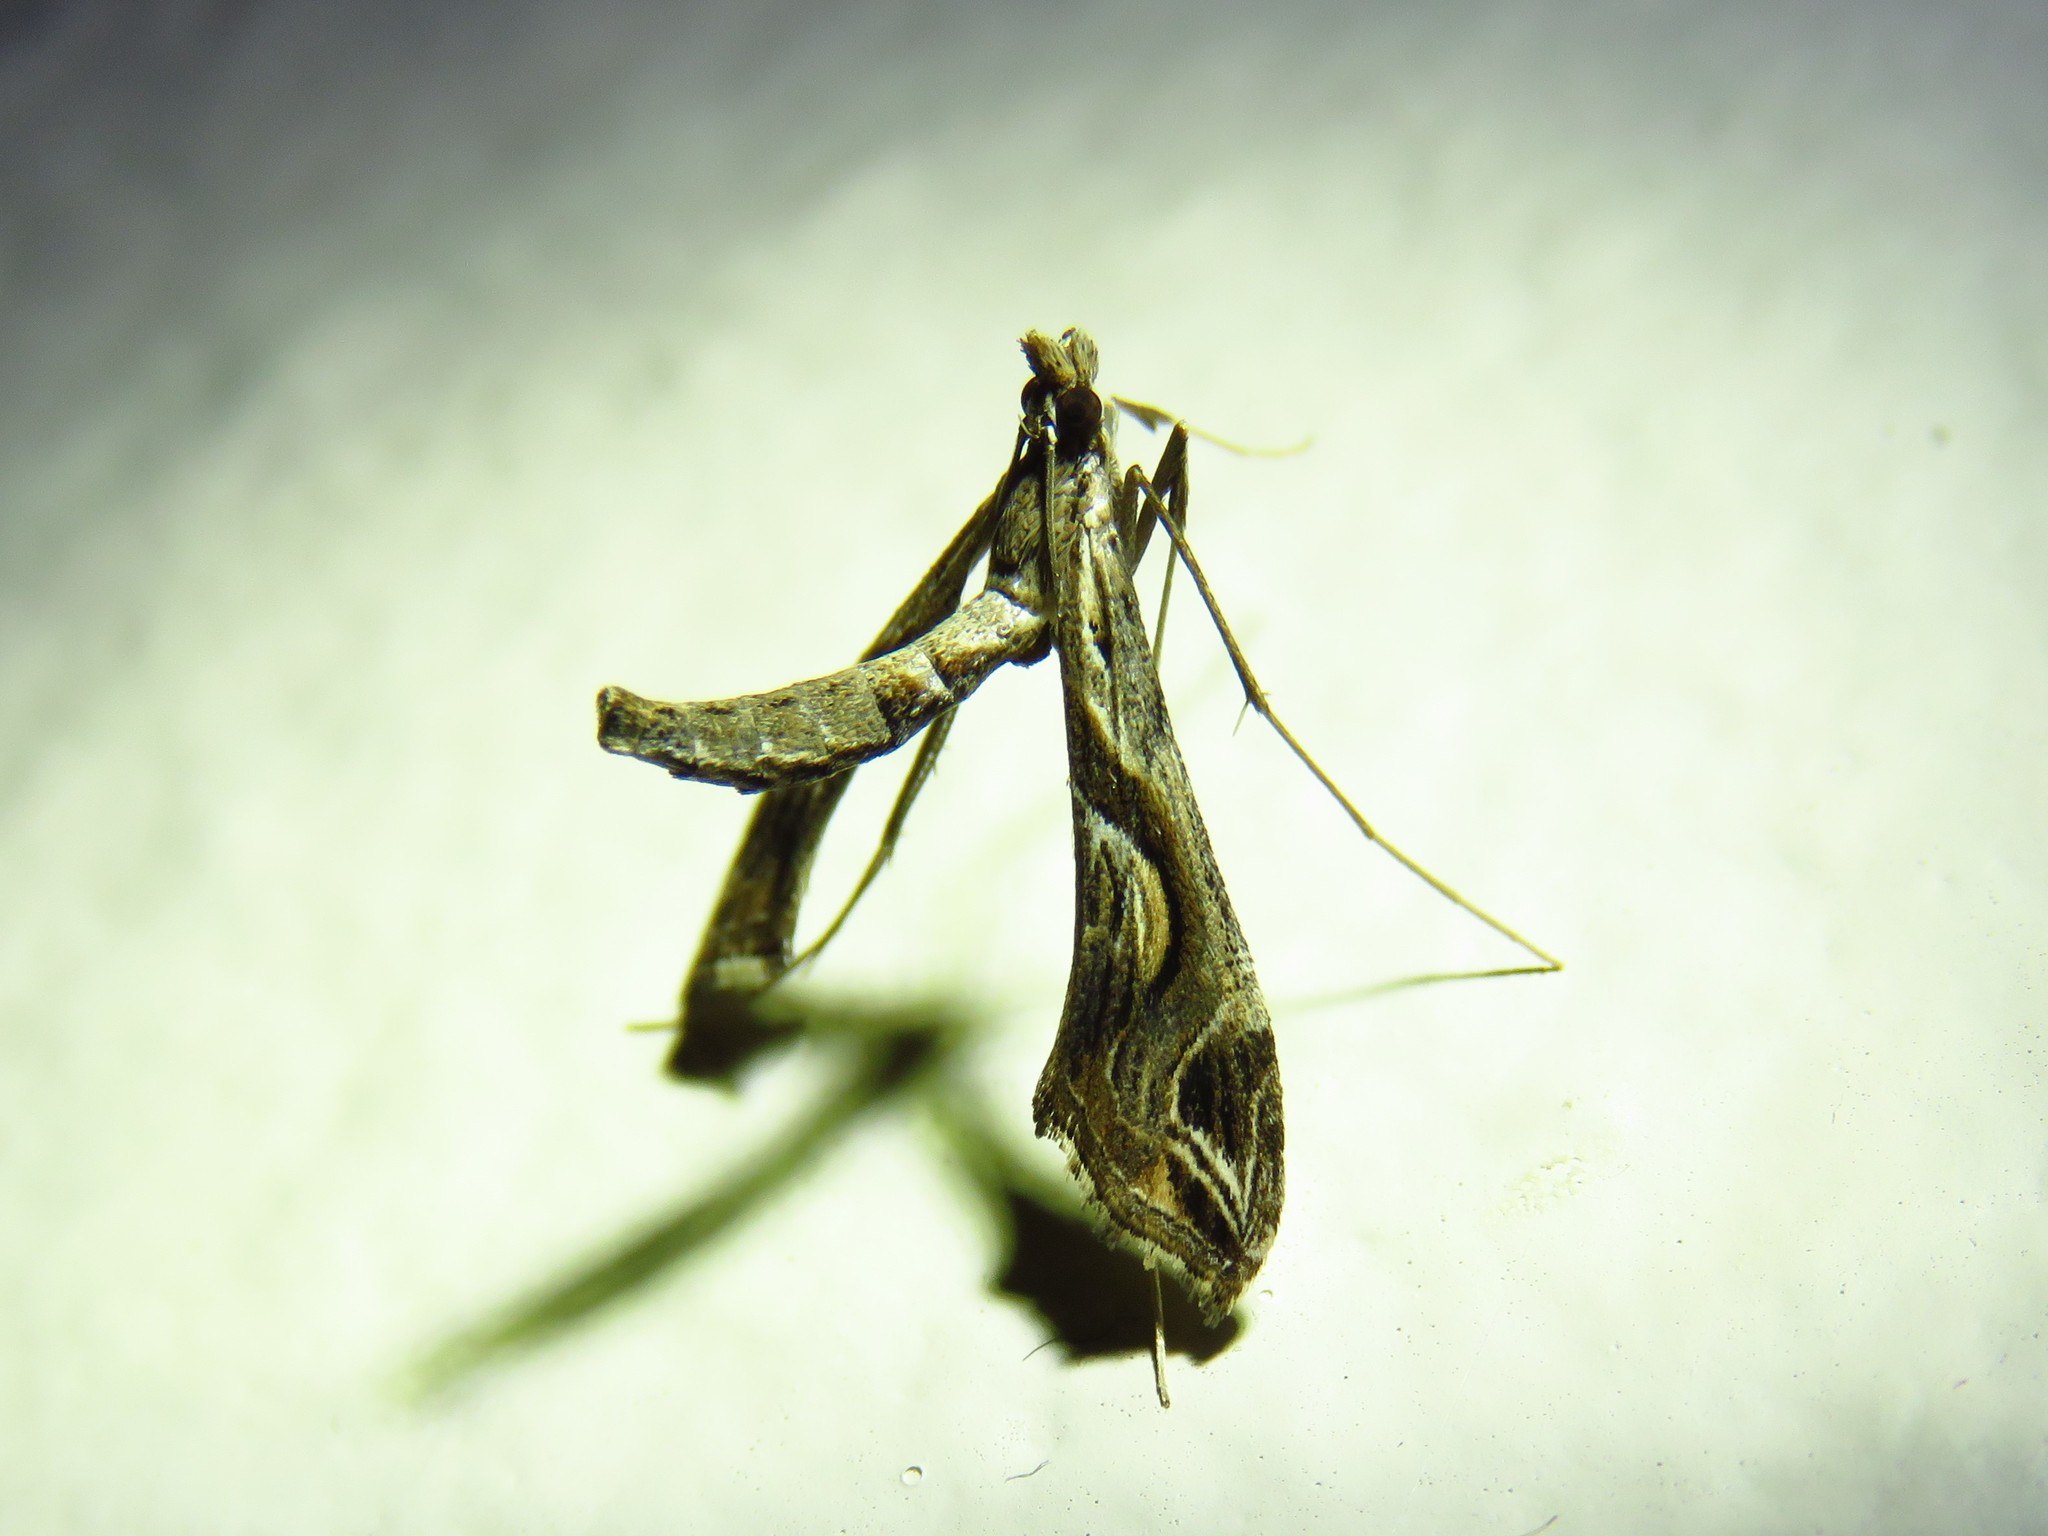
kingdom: Animalia
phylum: Arthropoda
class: Insecta
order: Lepidoptera
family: Crambidae
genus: Lineodes
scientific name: Lineodes integra
